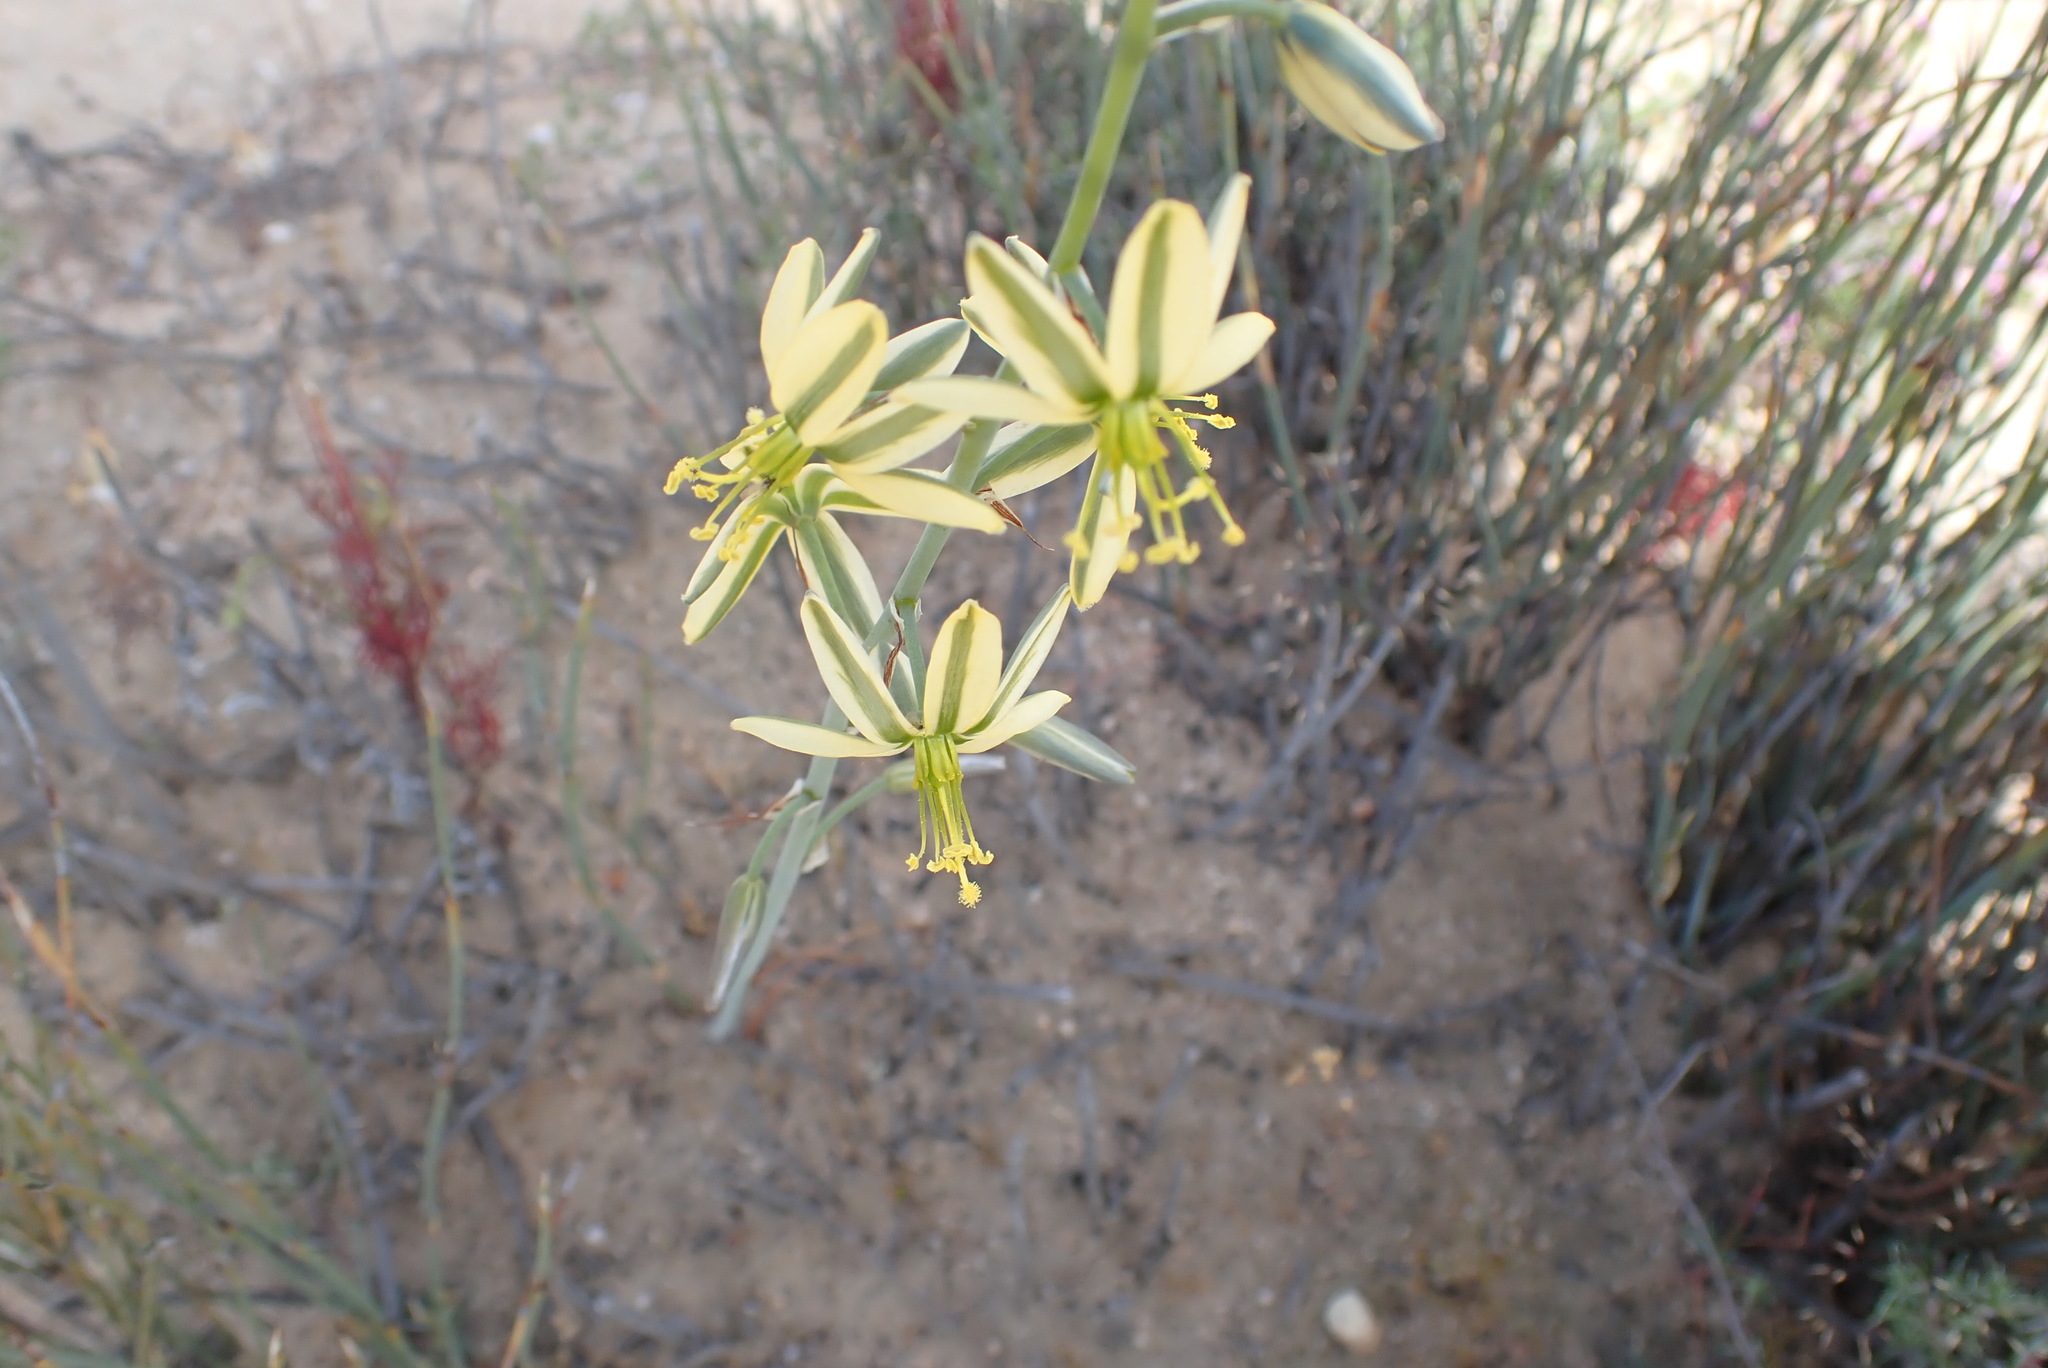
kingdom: Plantae
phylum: Tracheophyta
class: Liliopsida
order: Asparagales
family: Asparagaceae
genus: Albuca
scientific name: Albuca suaveolens
